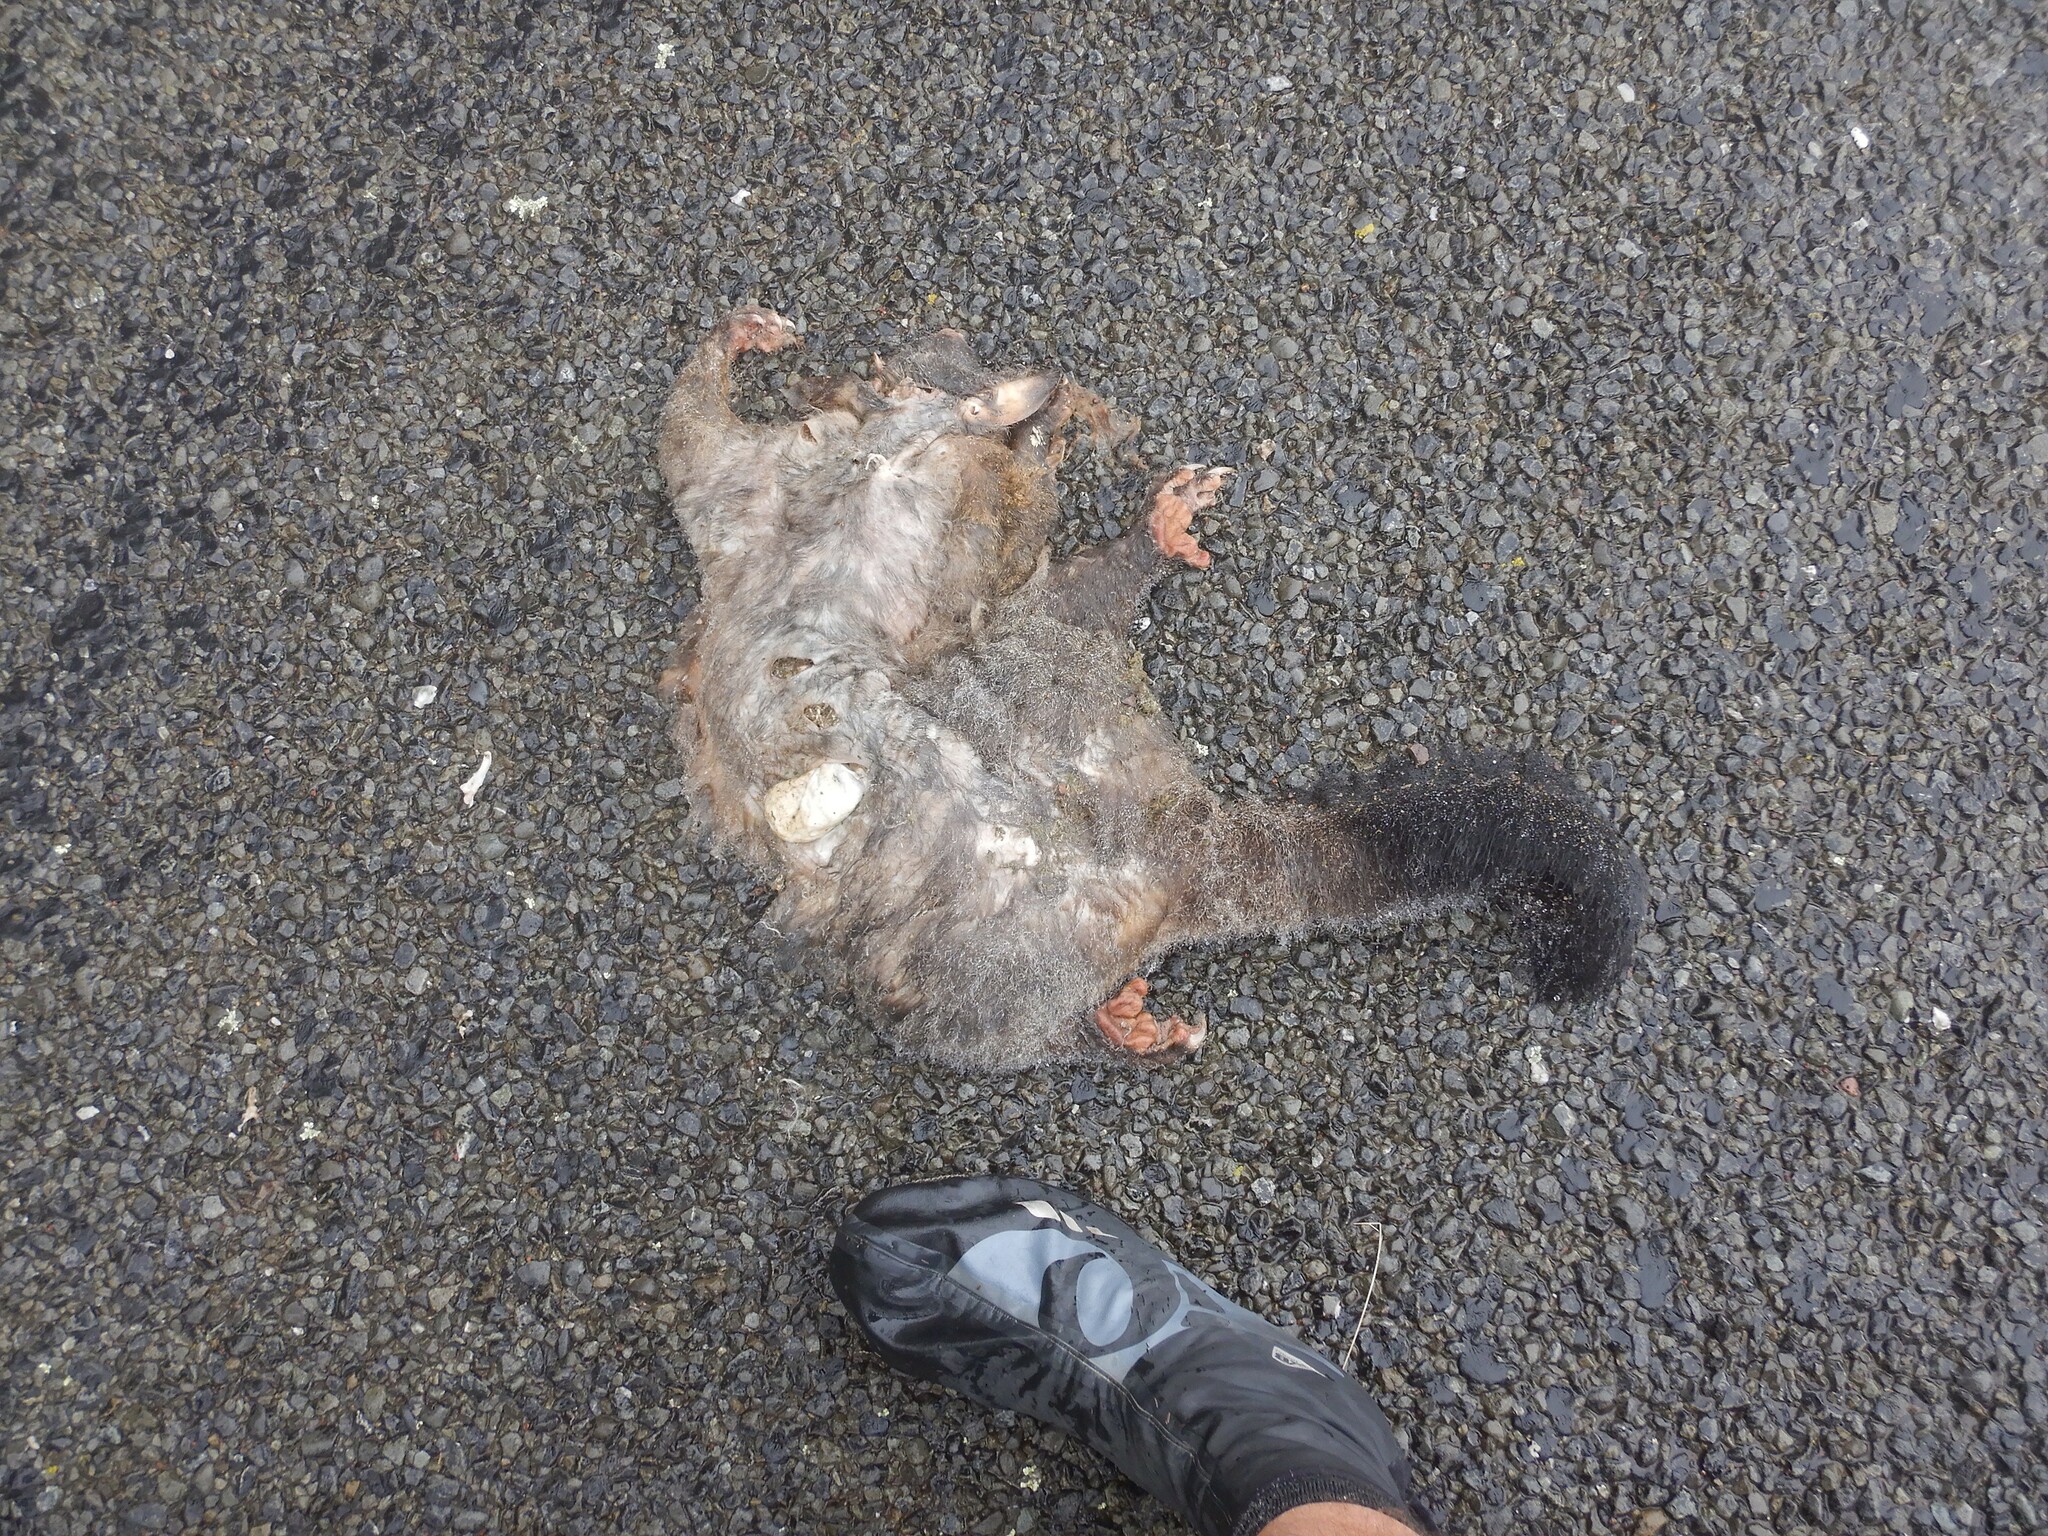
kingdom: Animalia
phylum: Chordata
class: Mammalia
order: Diprotodontia
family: Phalangeridae
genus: Trichosurus
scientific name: Trichosurus vulpecula
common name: Common brushtail
